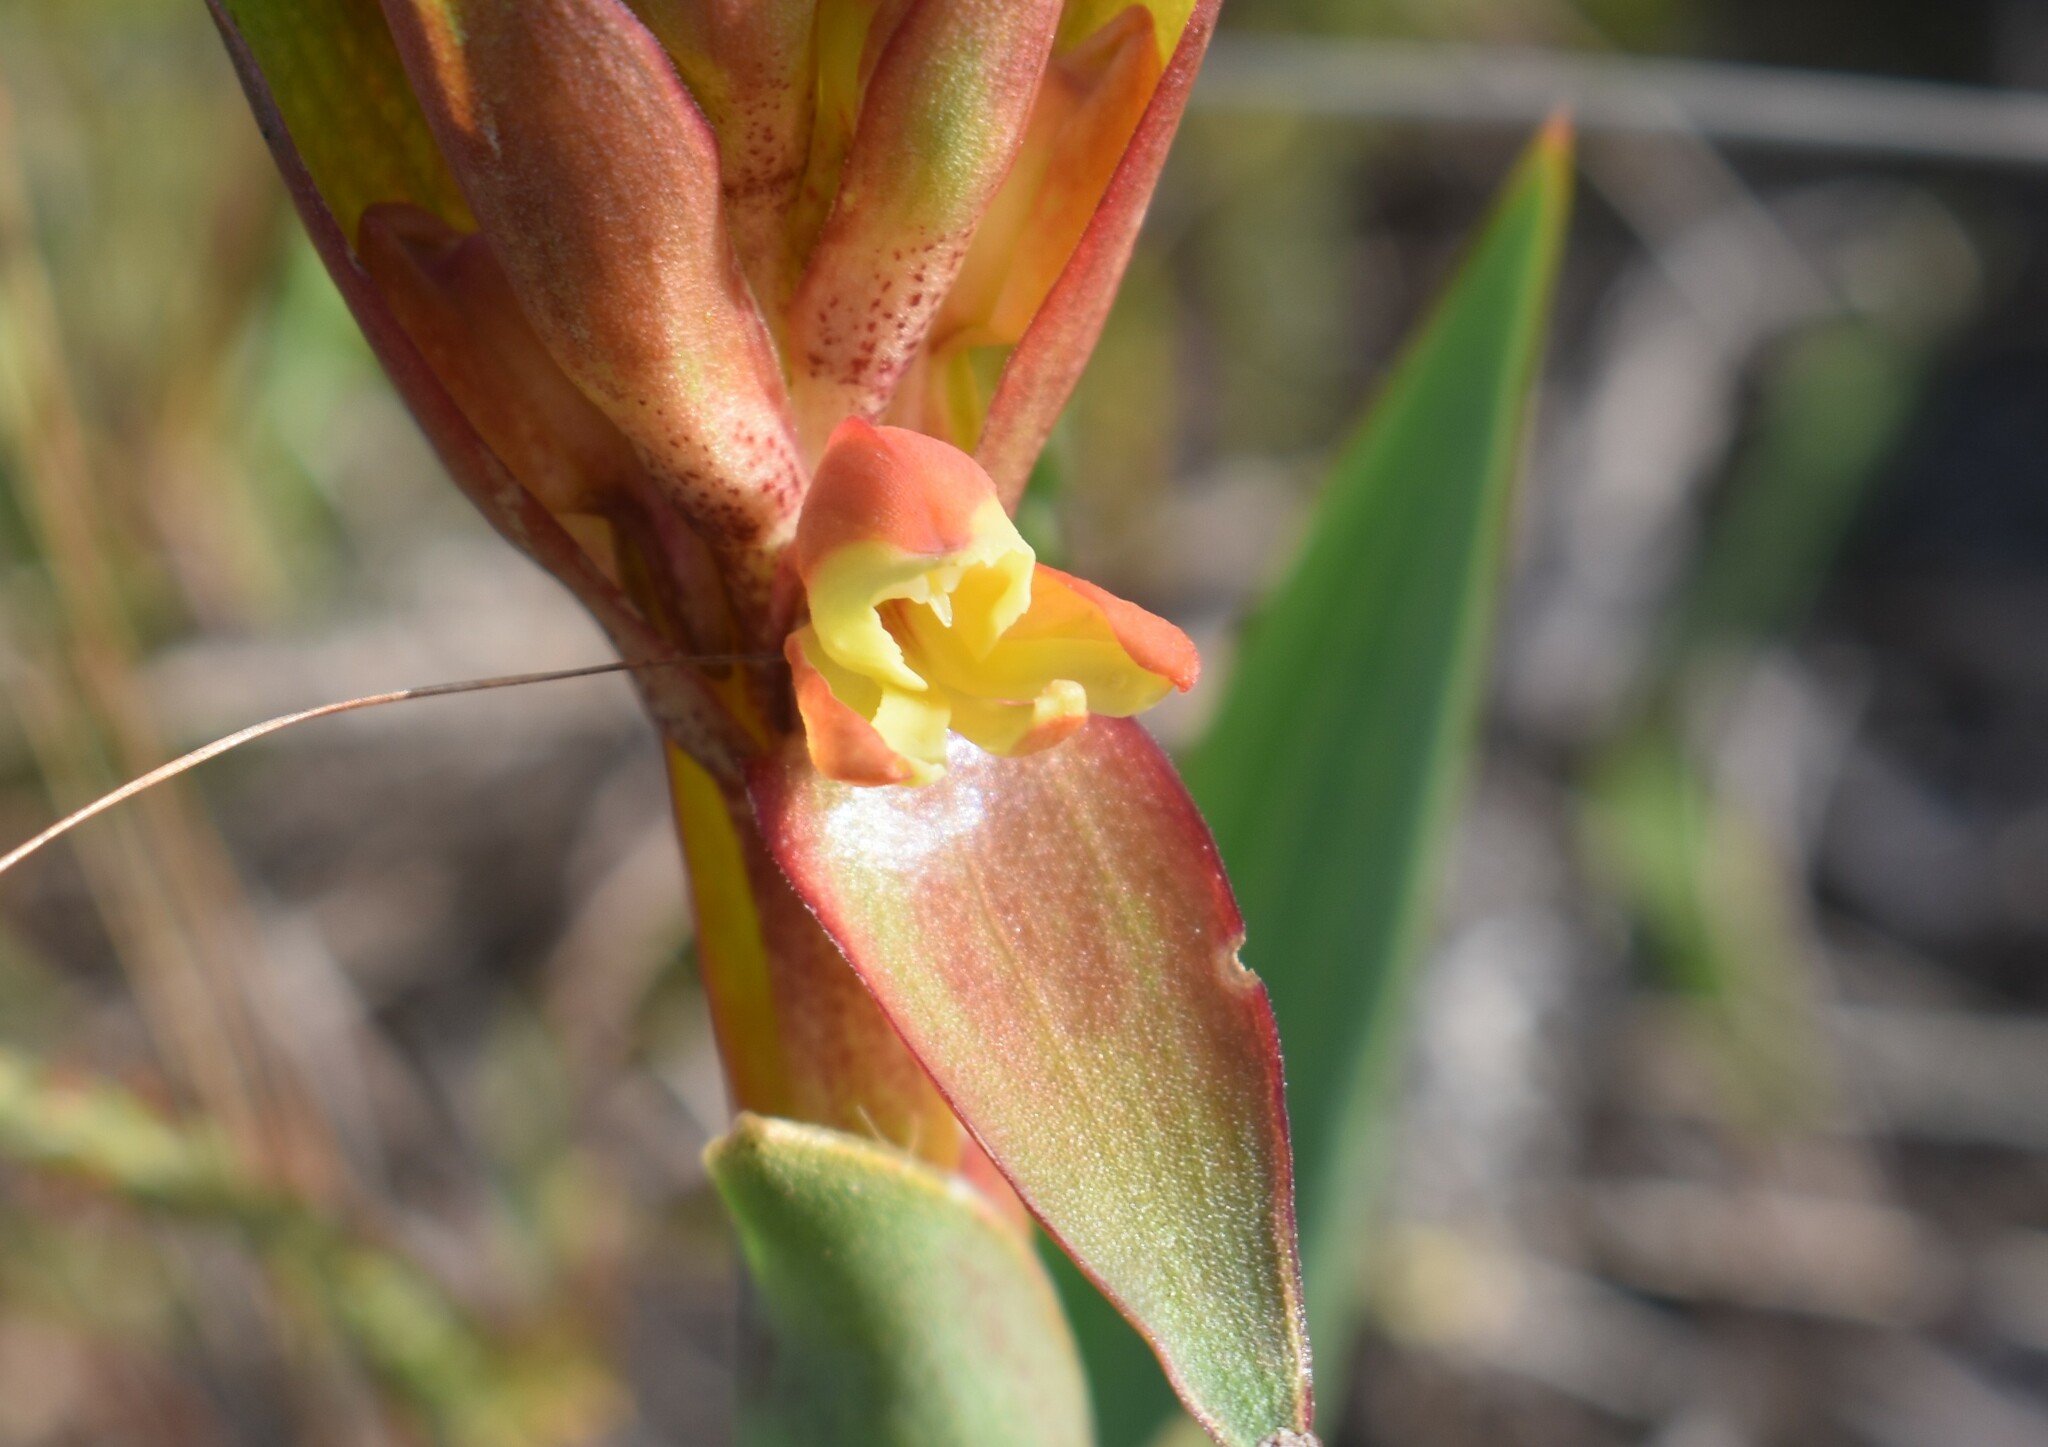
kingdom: Plantae
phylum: Tracheophyta
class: Liliopsida
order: Asparagales
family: Orchidaceae
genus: Satyrium
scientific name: Satyrium coriifolium
